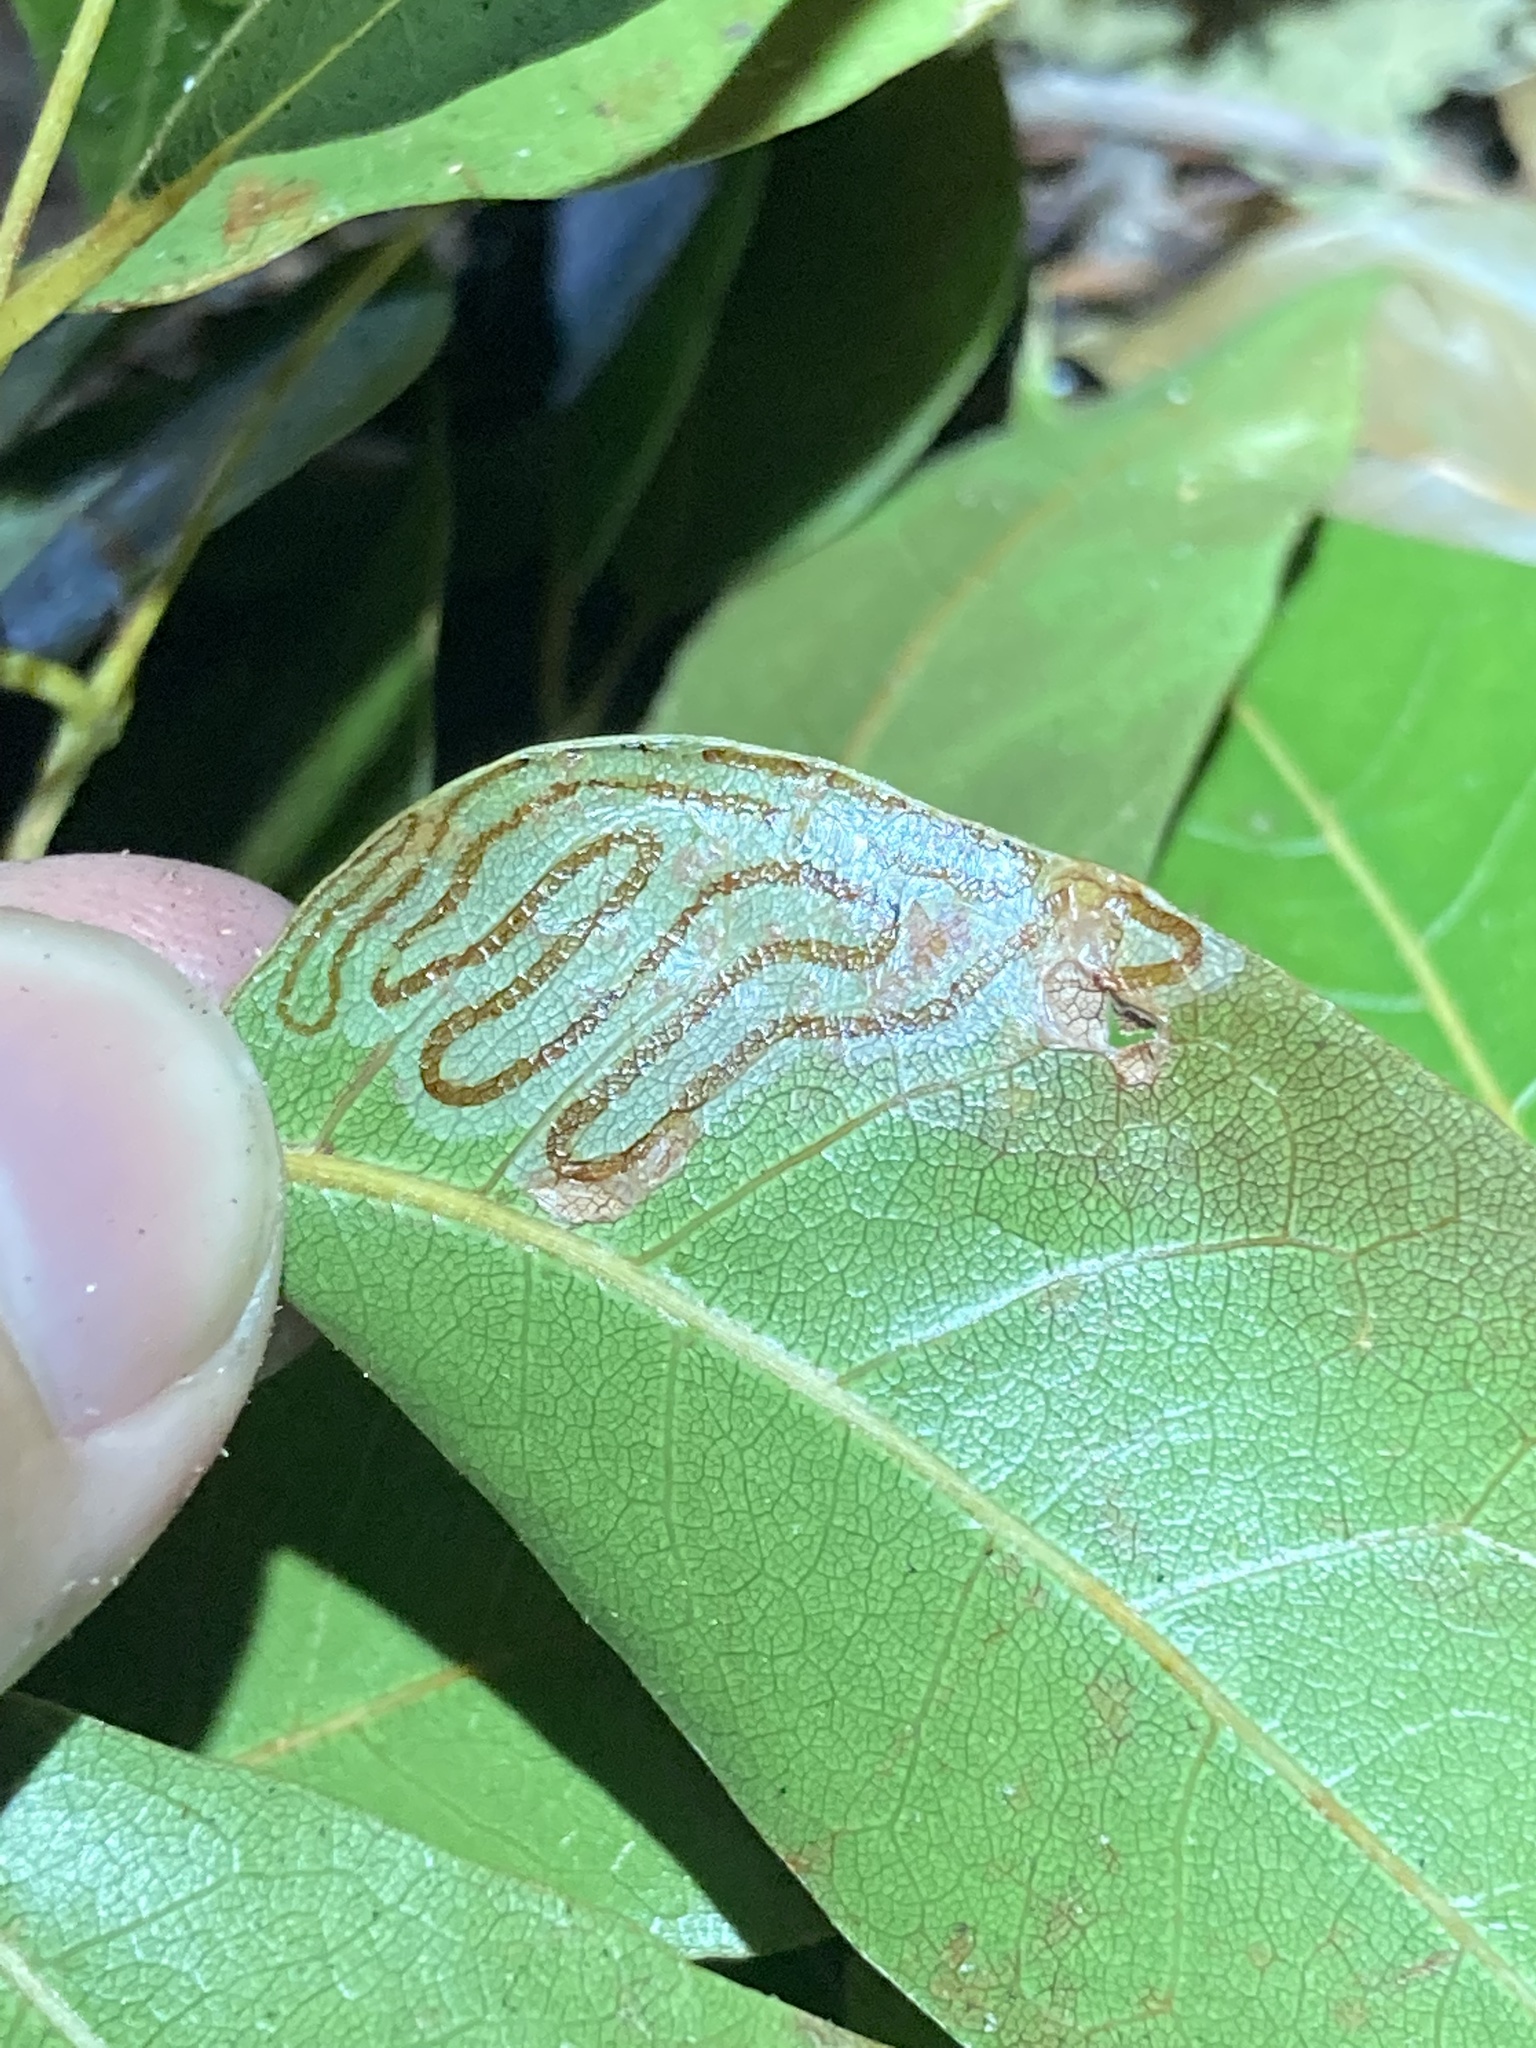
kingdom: Animalia
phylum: Arthropoda
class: Insecta
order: Lepidoptera
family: Gracillariidae
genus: Phyllocnistis
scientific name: Phyllocnistis meliacella
